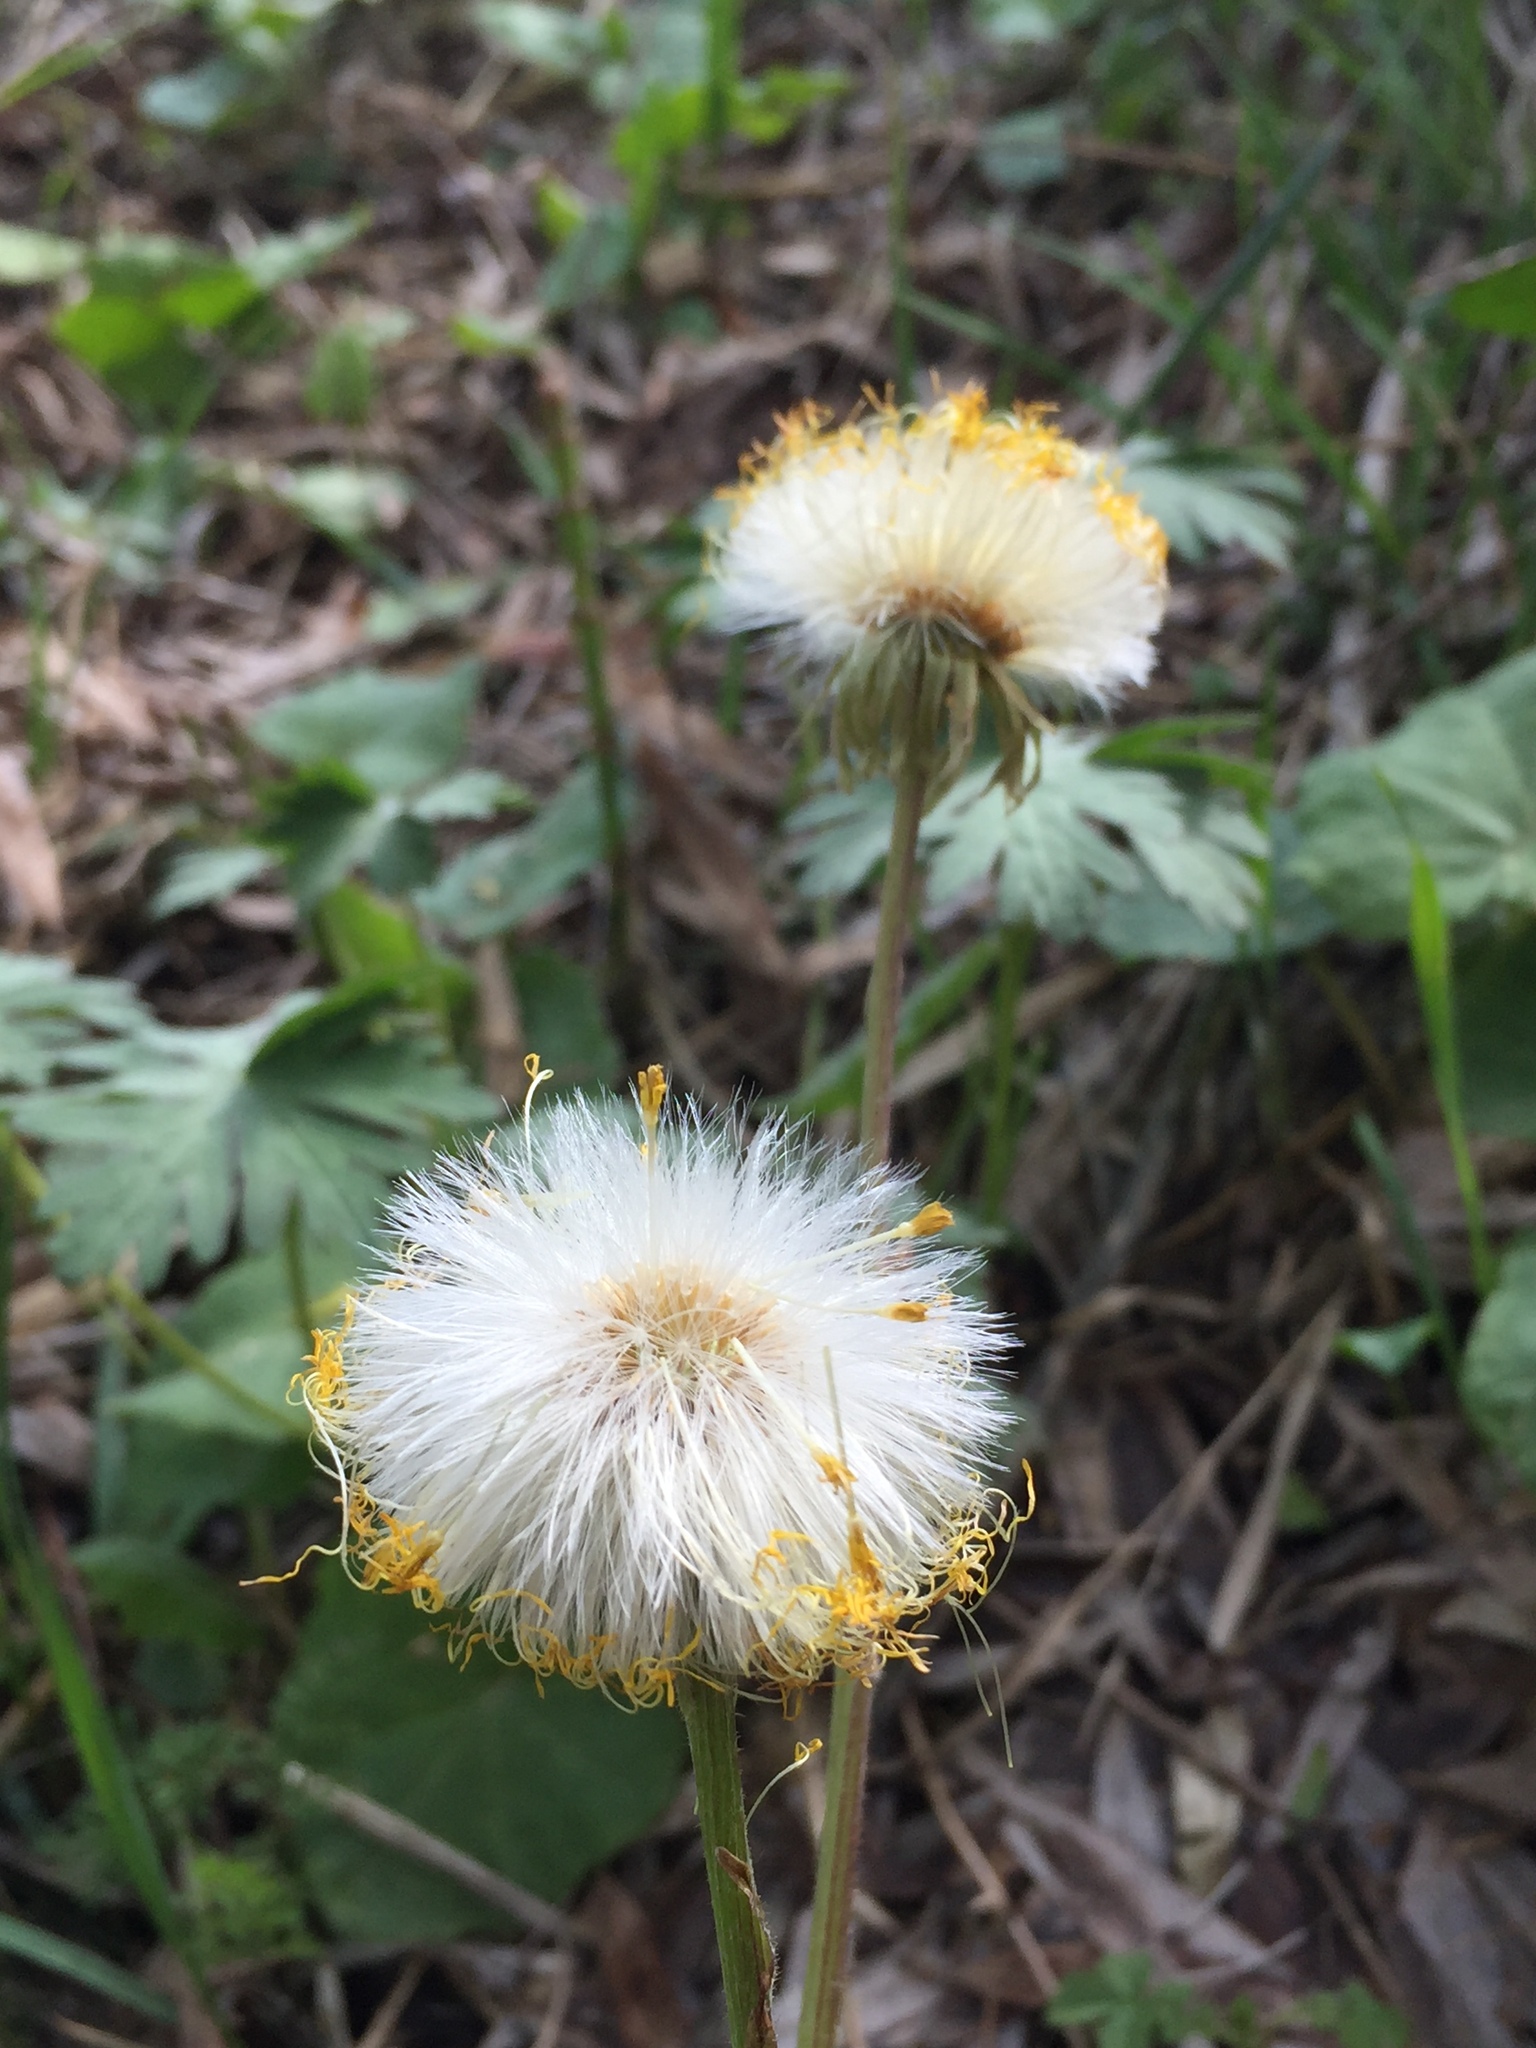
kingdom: Plantae
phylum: Tracheophyta
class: Magnoliopsida
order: Asterales
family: Asteraceae
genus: Tussilago
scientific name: Tussilago farfara
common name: Coltsfoot
